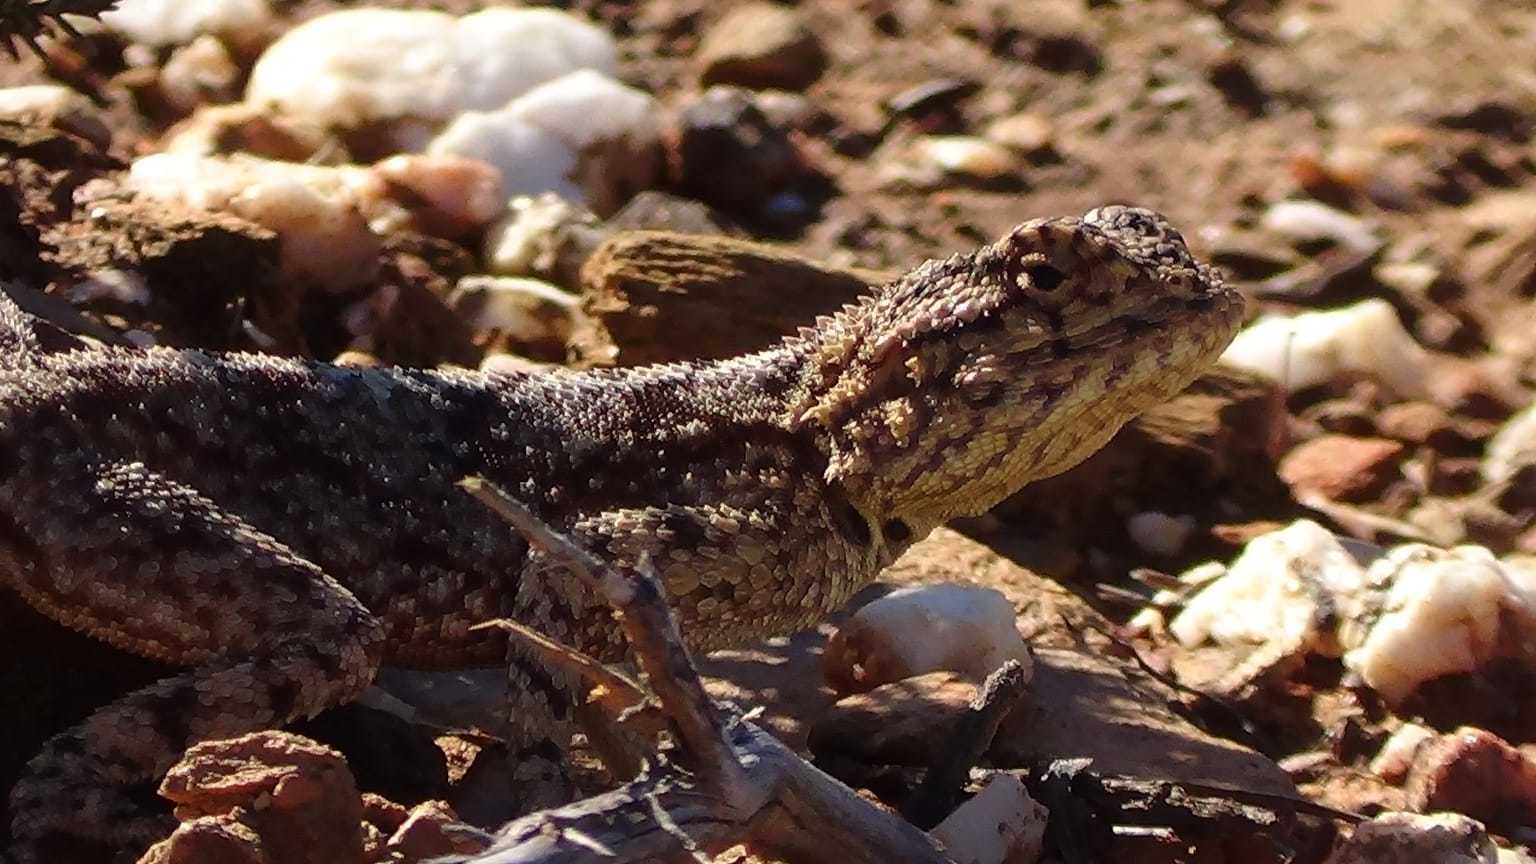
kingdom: Animalia
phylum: Chordata
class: Squamata
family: Agamidae
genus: Agama
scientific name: Agama atra
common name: Southern african rock agama
